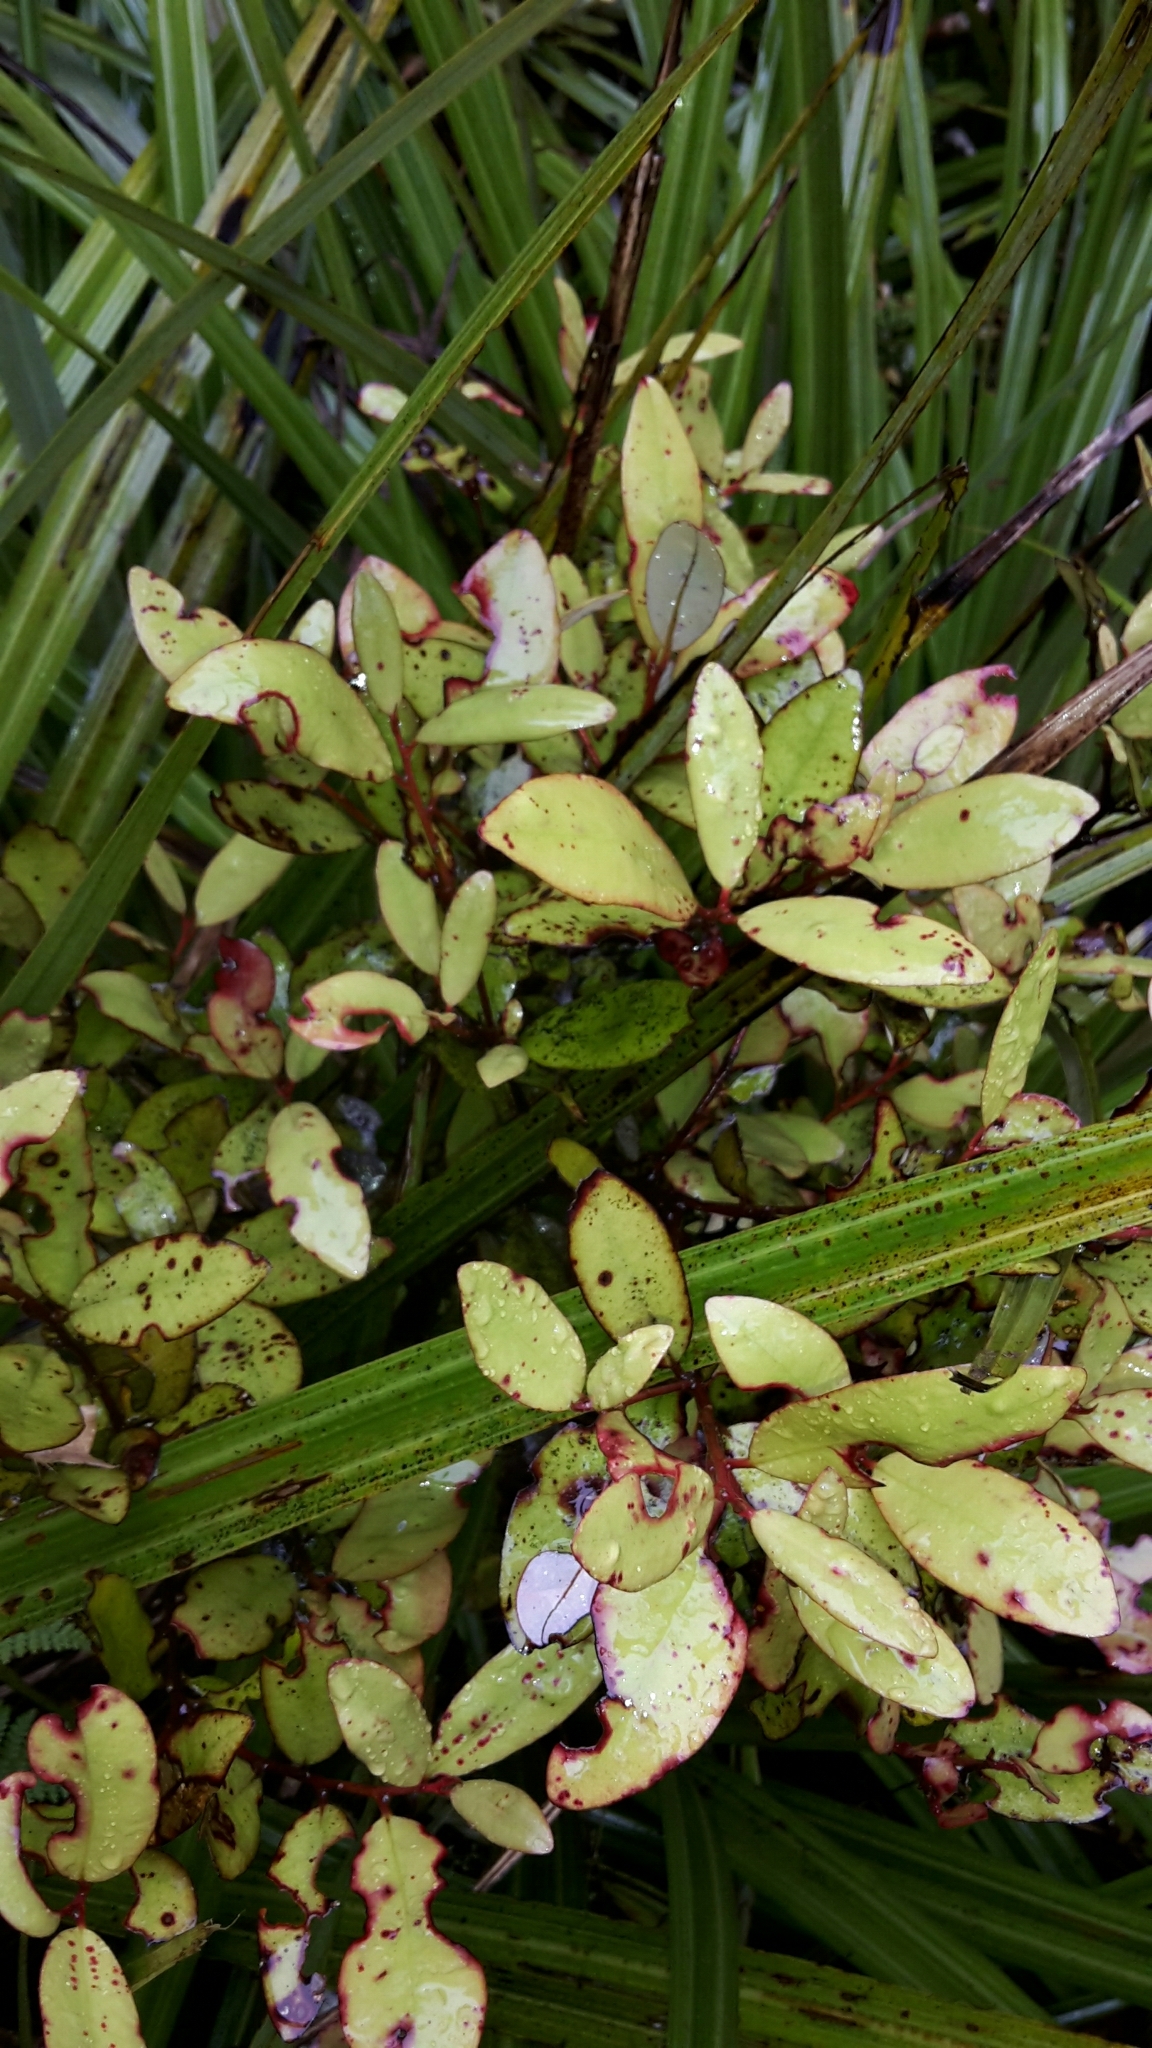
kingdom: Plantae
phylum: Tracheophyta
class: Magnoliopsida
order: Canellales
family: Winteraceae
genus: Pseudowintera
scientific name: Pseudowintera colorata
